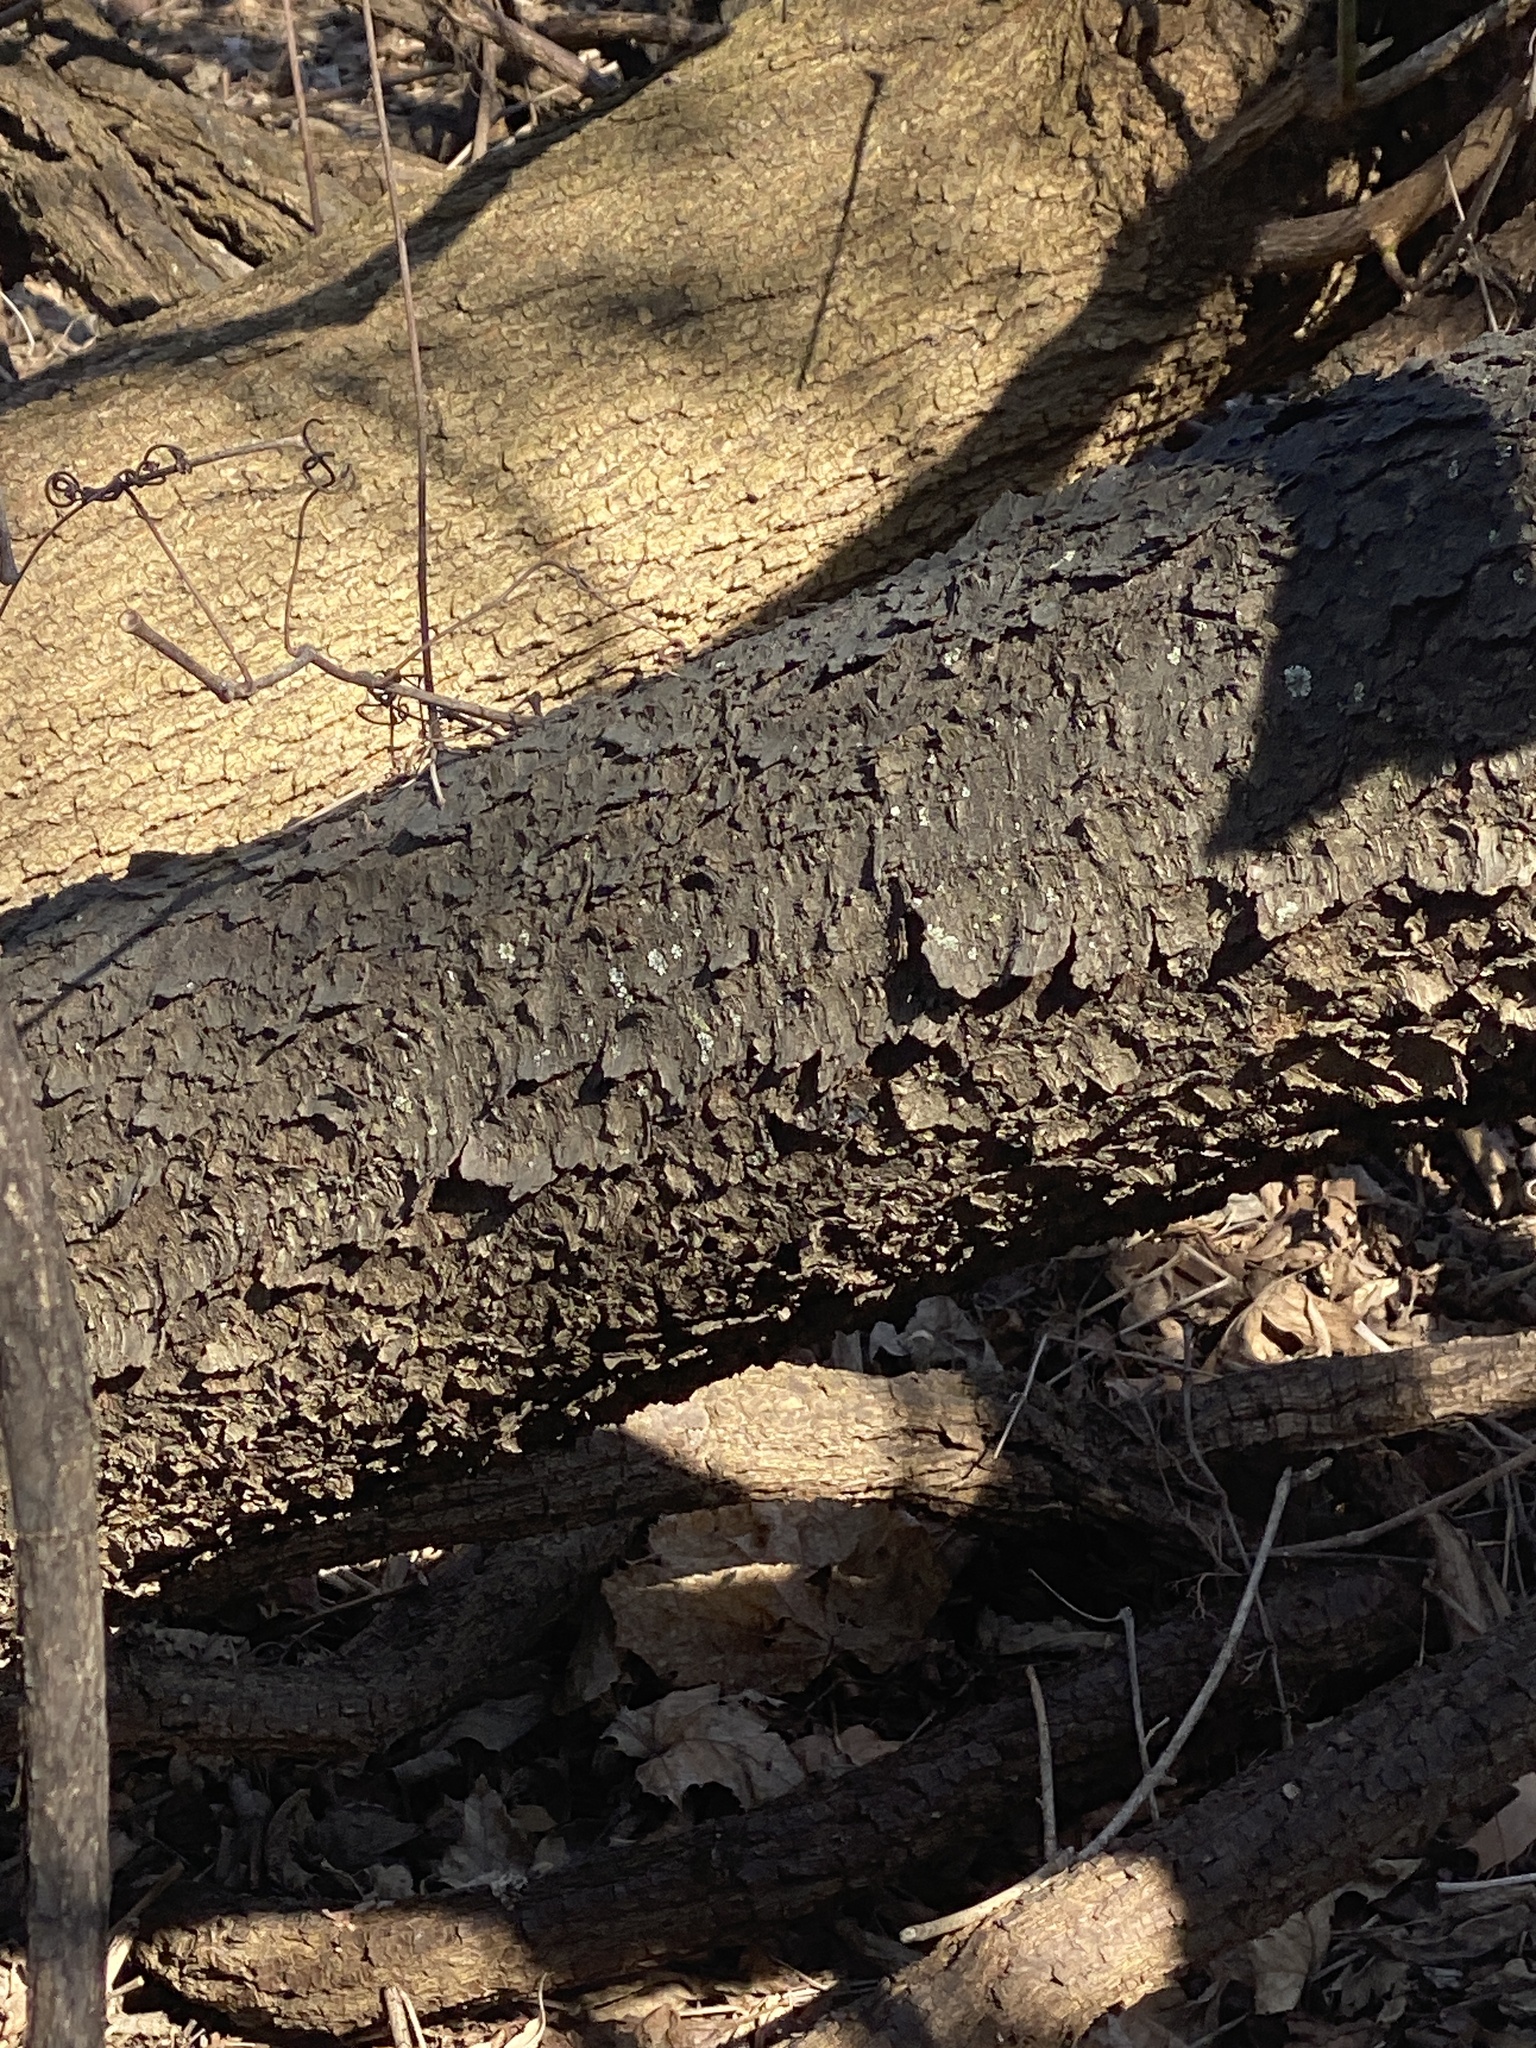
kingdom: Plantae
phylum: Tracheophyta
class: Magnoliopsida
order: Rosales
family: Rosaceae
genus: Prunus
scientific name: Prunus serotina
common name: Black cherry
